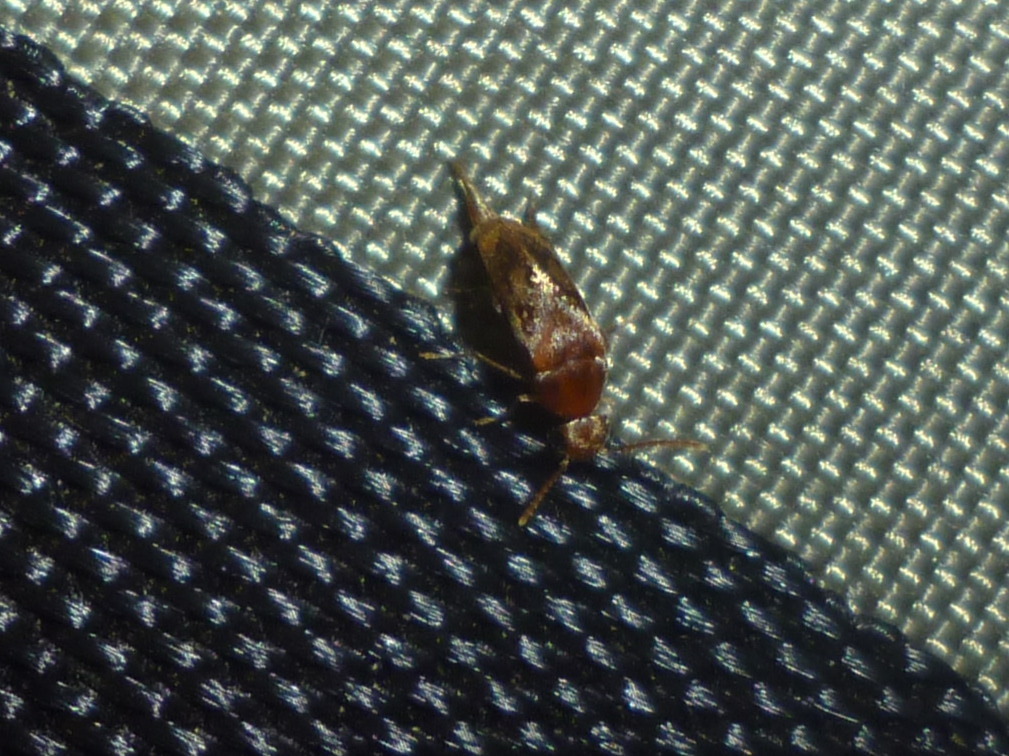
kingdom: Animalia
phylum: Arthropoda
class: Insecta
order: Coleoptera
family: Mordellidae
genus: Mordellistena
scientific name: Mordellistena masoni
